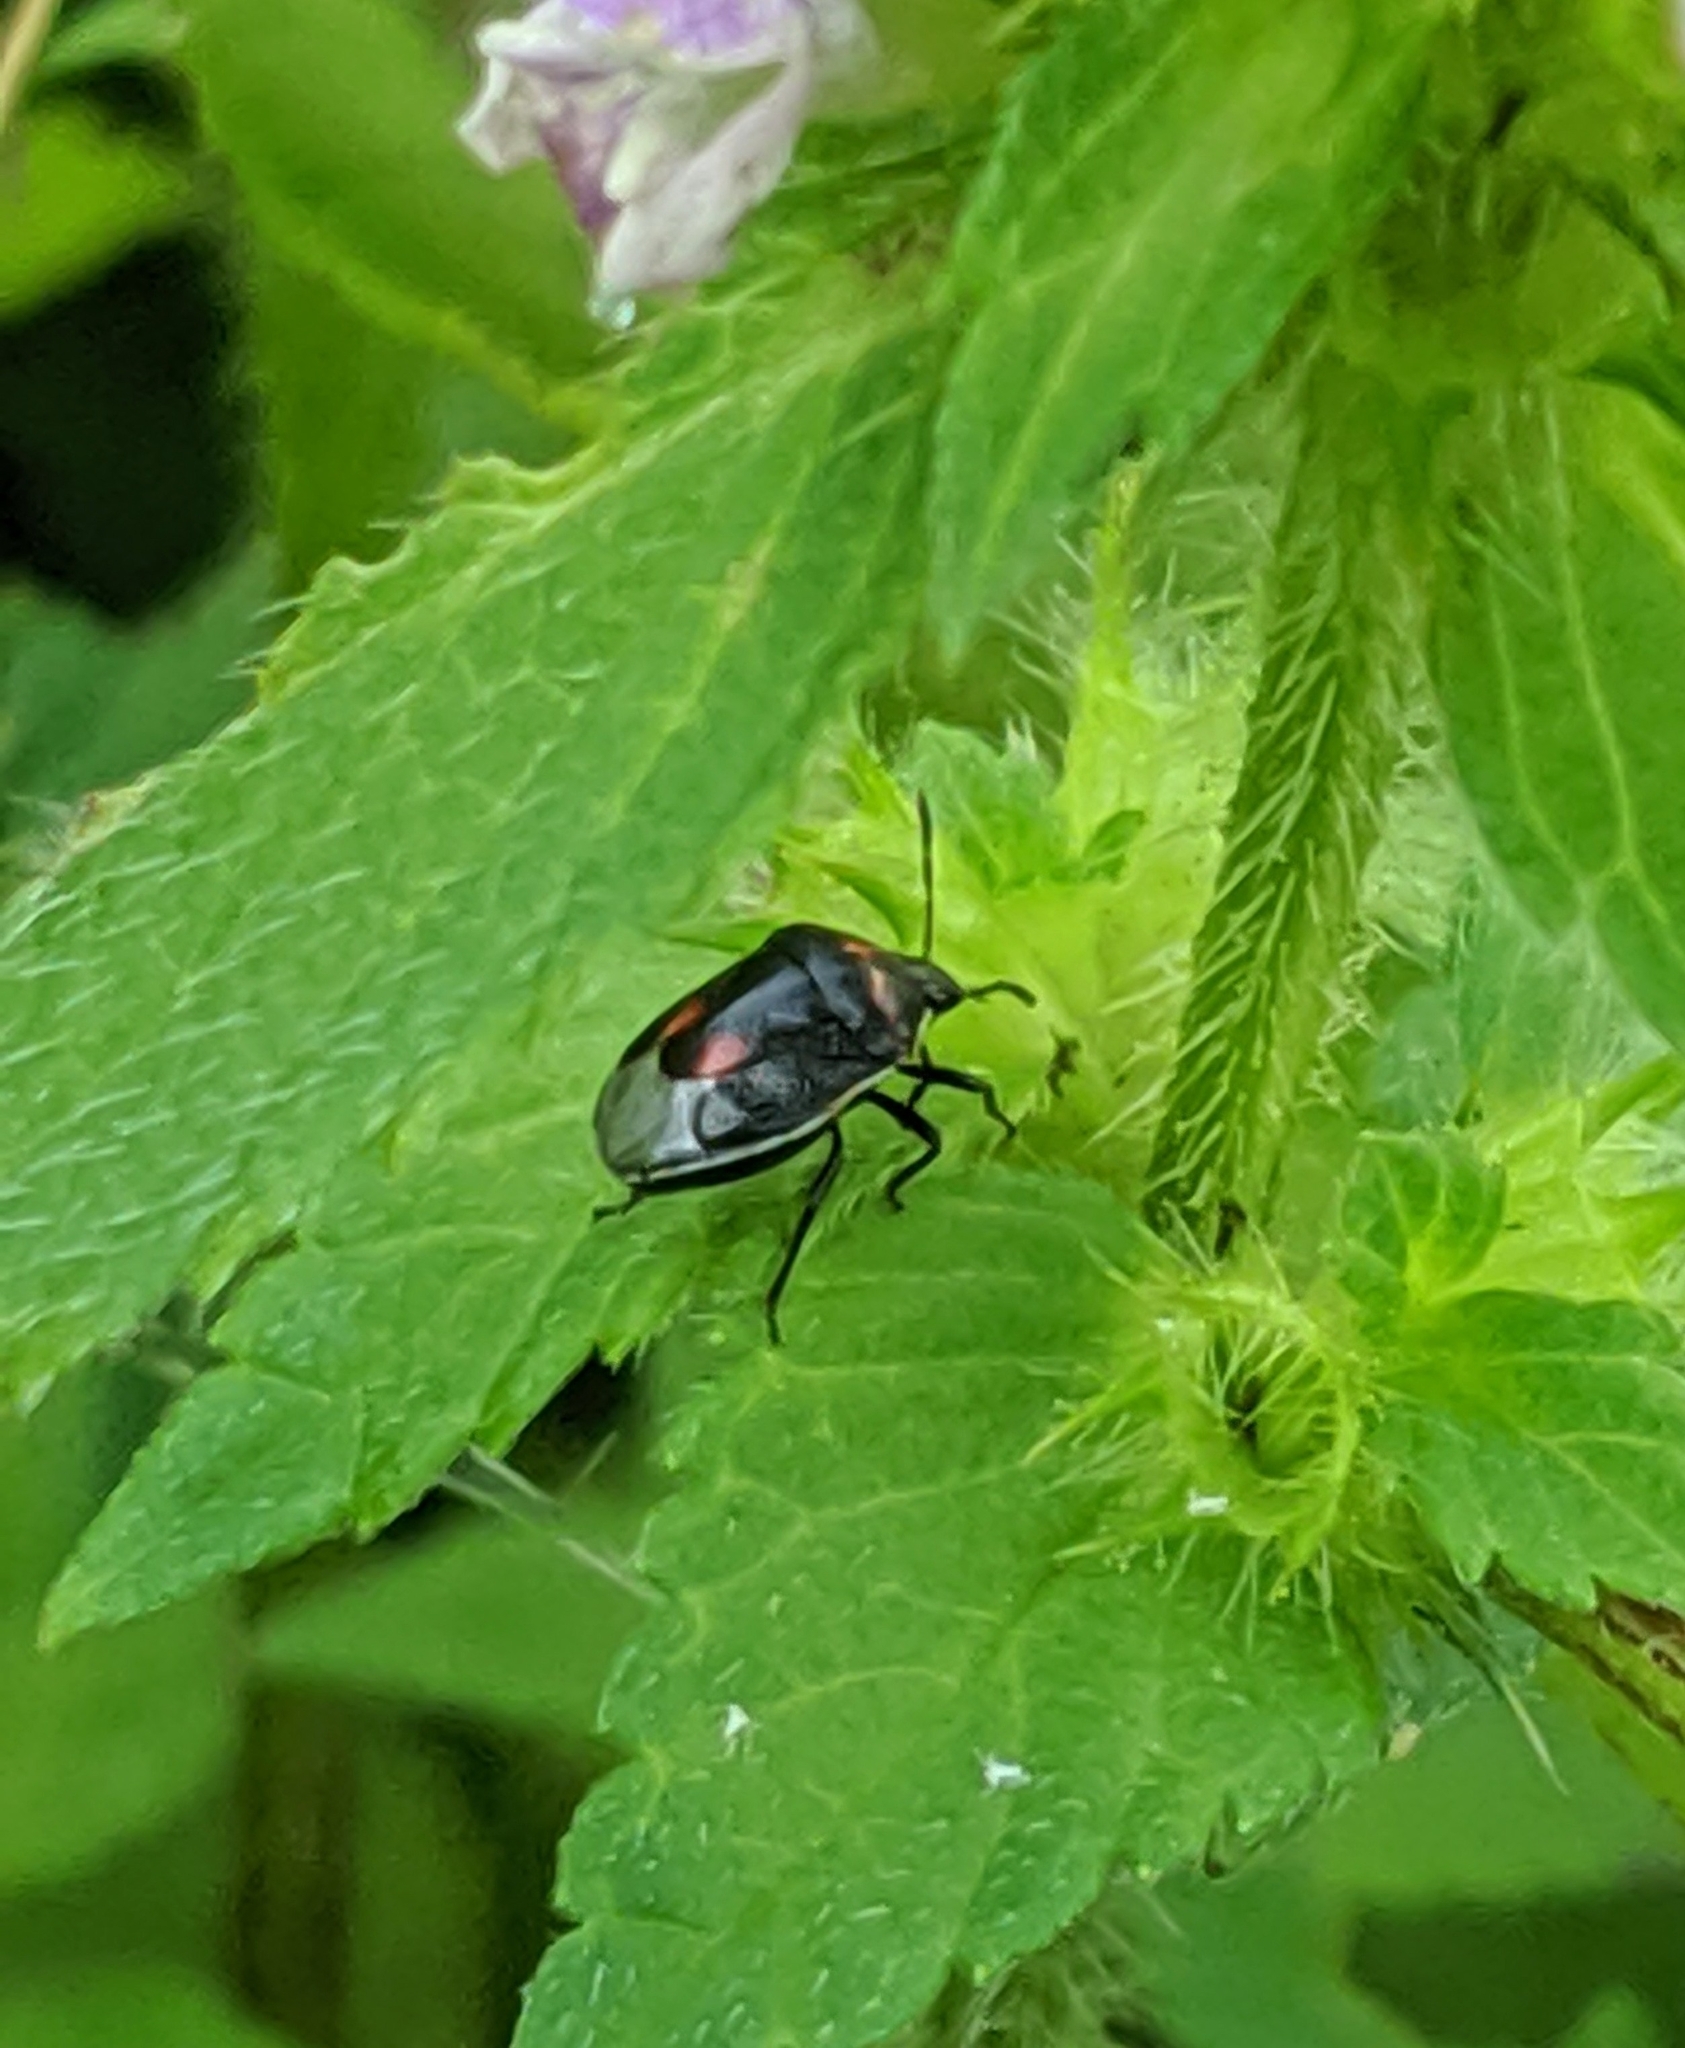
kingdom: Animalia
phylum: Arthropoda
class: Insecta
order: Hemiptera
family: Pentatomidae
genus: Cosmopepla
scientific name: Cosmopepla lintneriana
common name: Twice-stabbed stink bug
